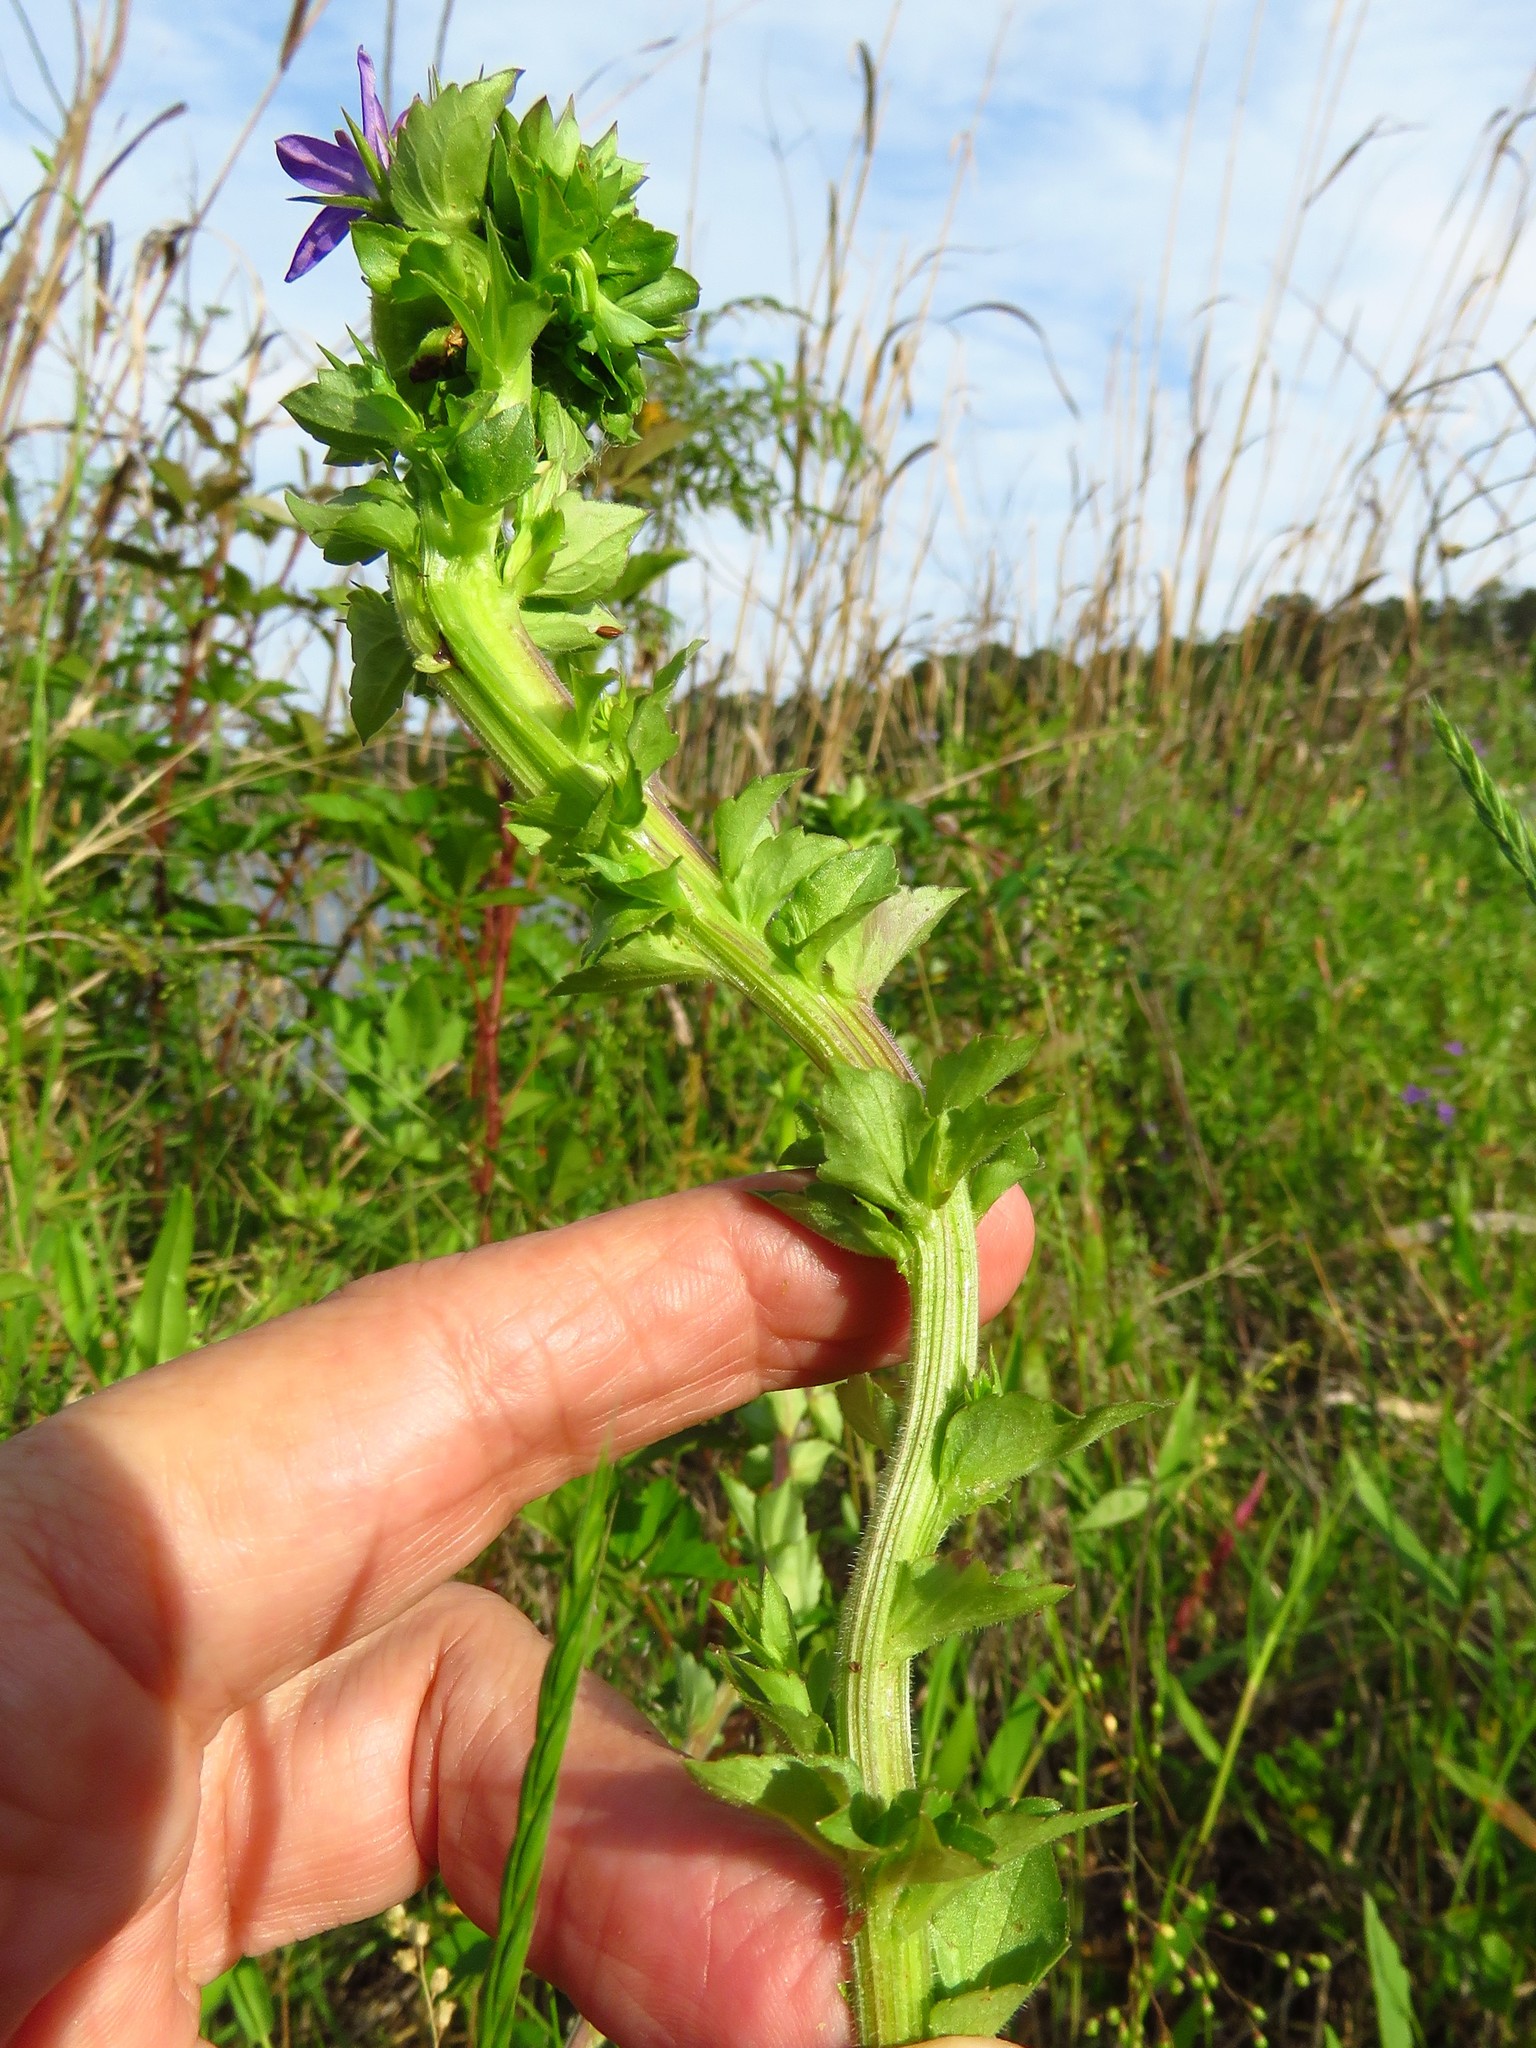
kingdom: Plantae
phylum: Tracheophyta
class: Magnoliopsida
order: Asterales
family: Campanulaceae
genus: Triodanis
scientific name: Triodanis perfoliata
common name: Clasping venus' looking-glass
